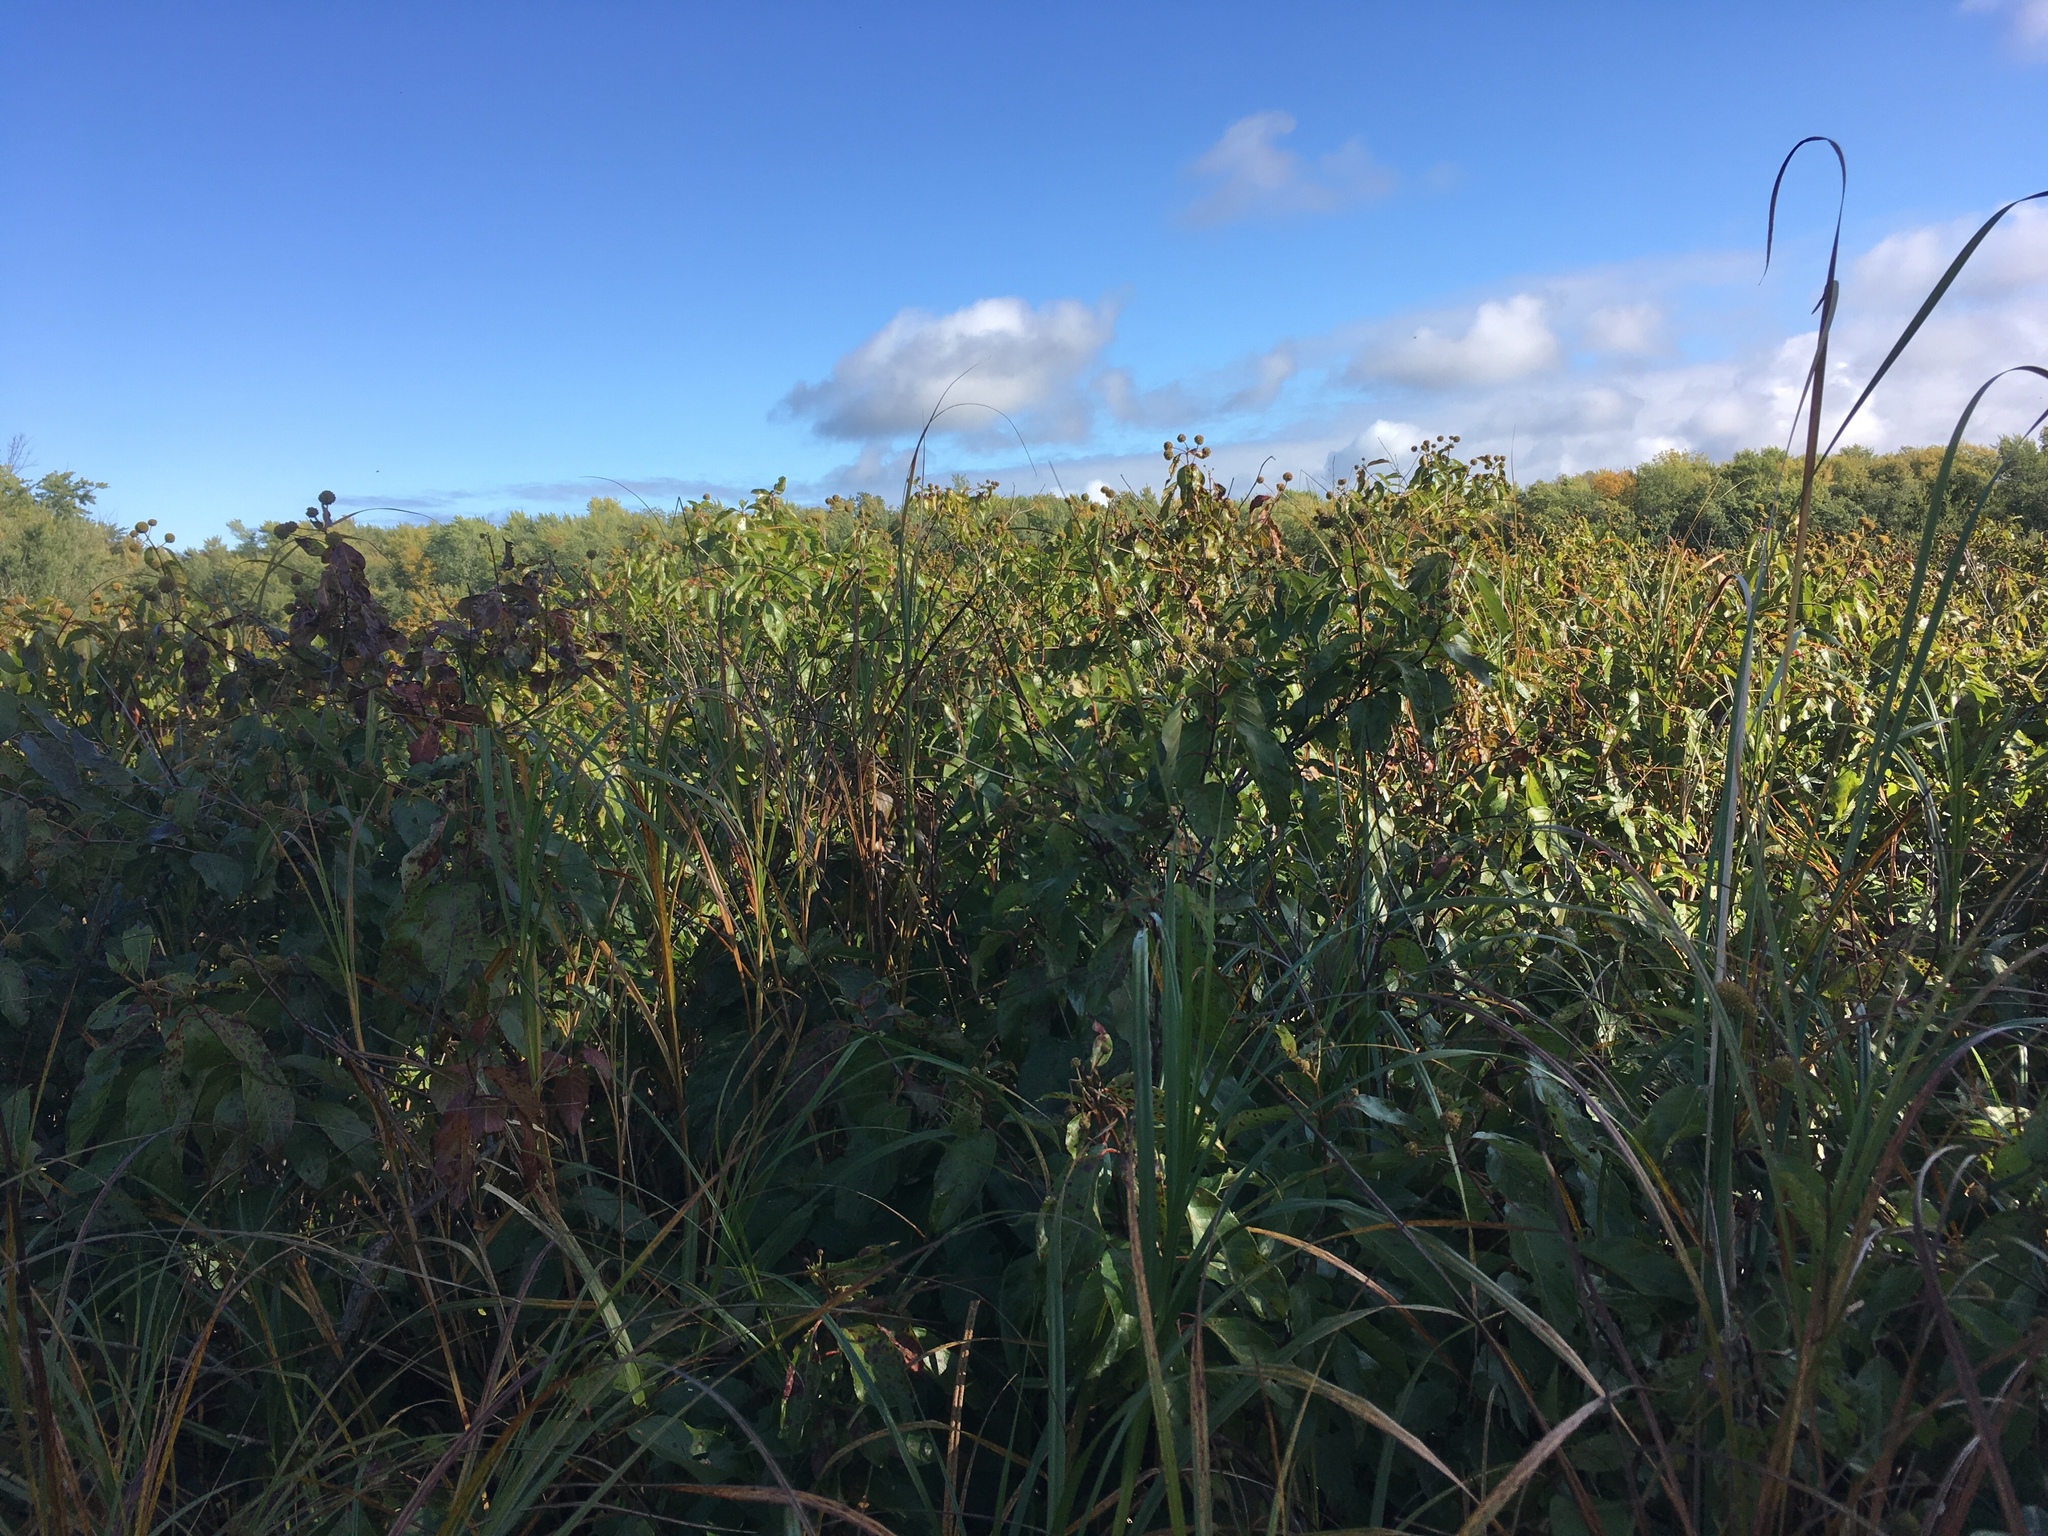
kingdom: Plantae
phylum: Tracheophyta
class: Magnoliopsida
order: Gentianales
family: Rubiaceae
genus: Cephalanthus
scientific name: Cephalanthus occidentalis
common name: Button-willow
